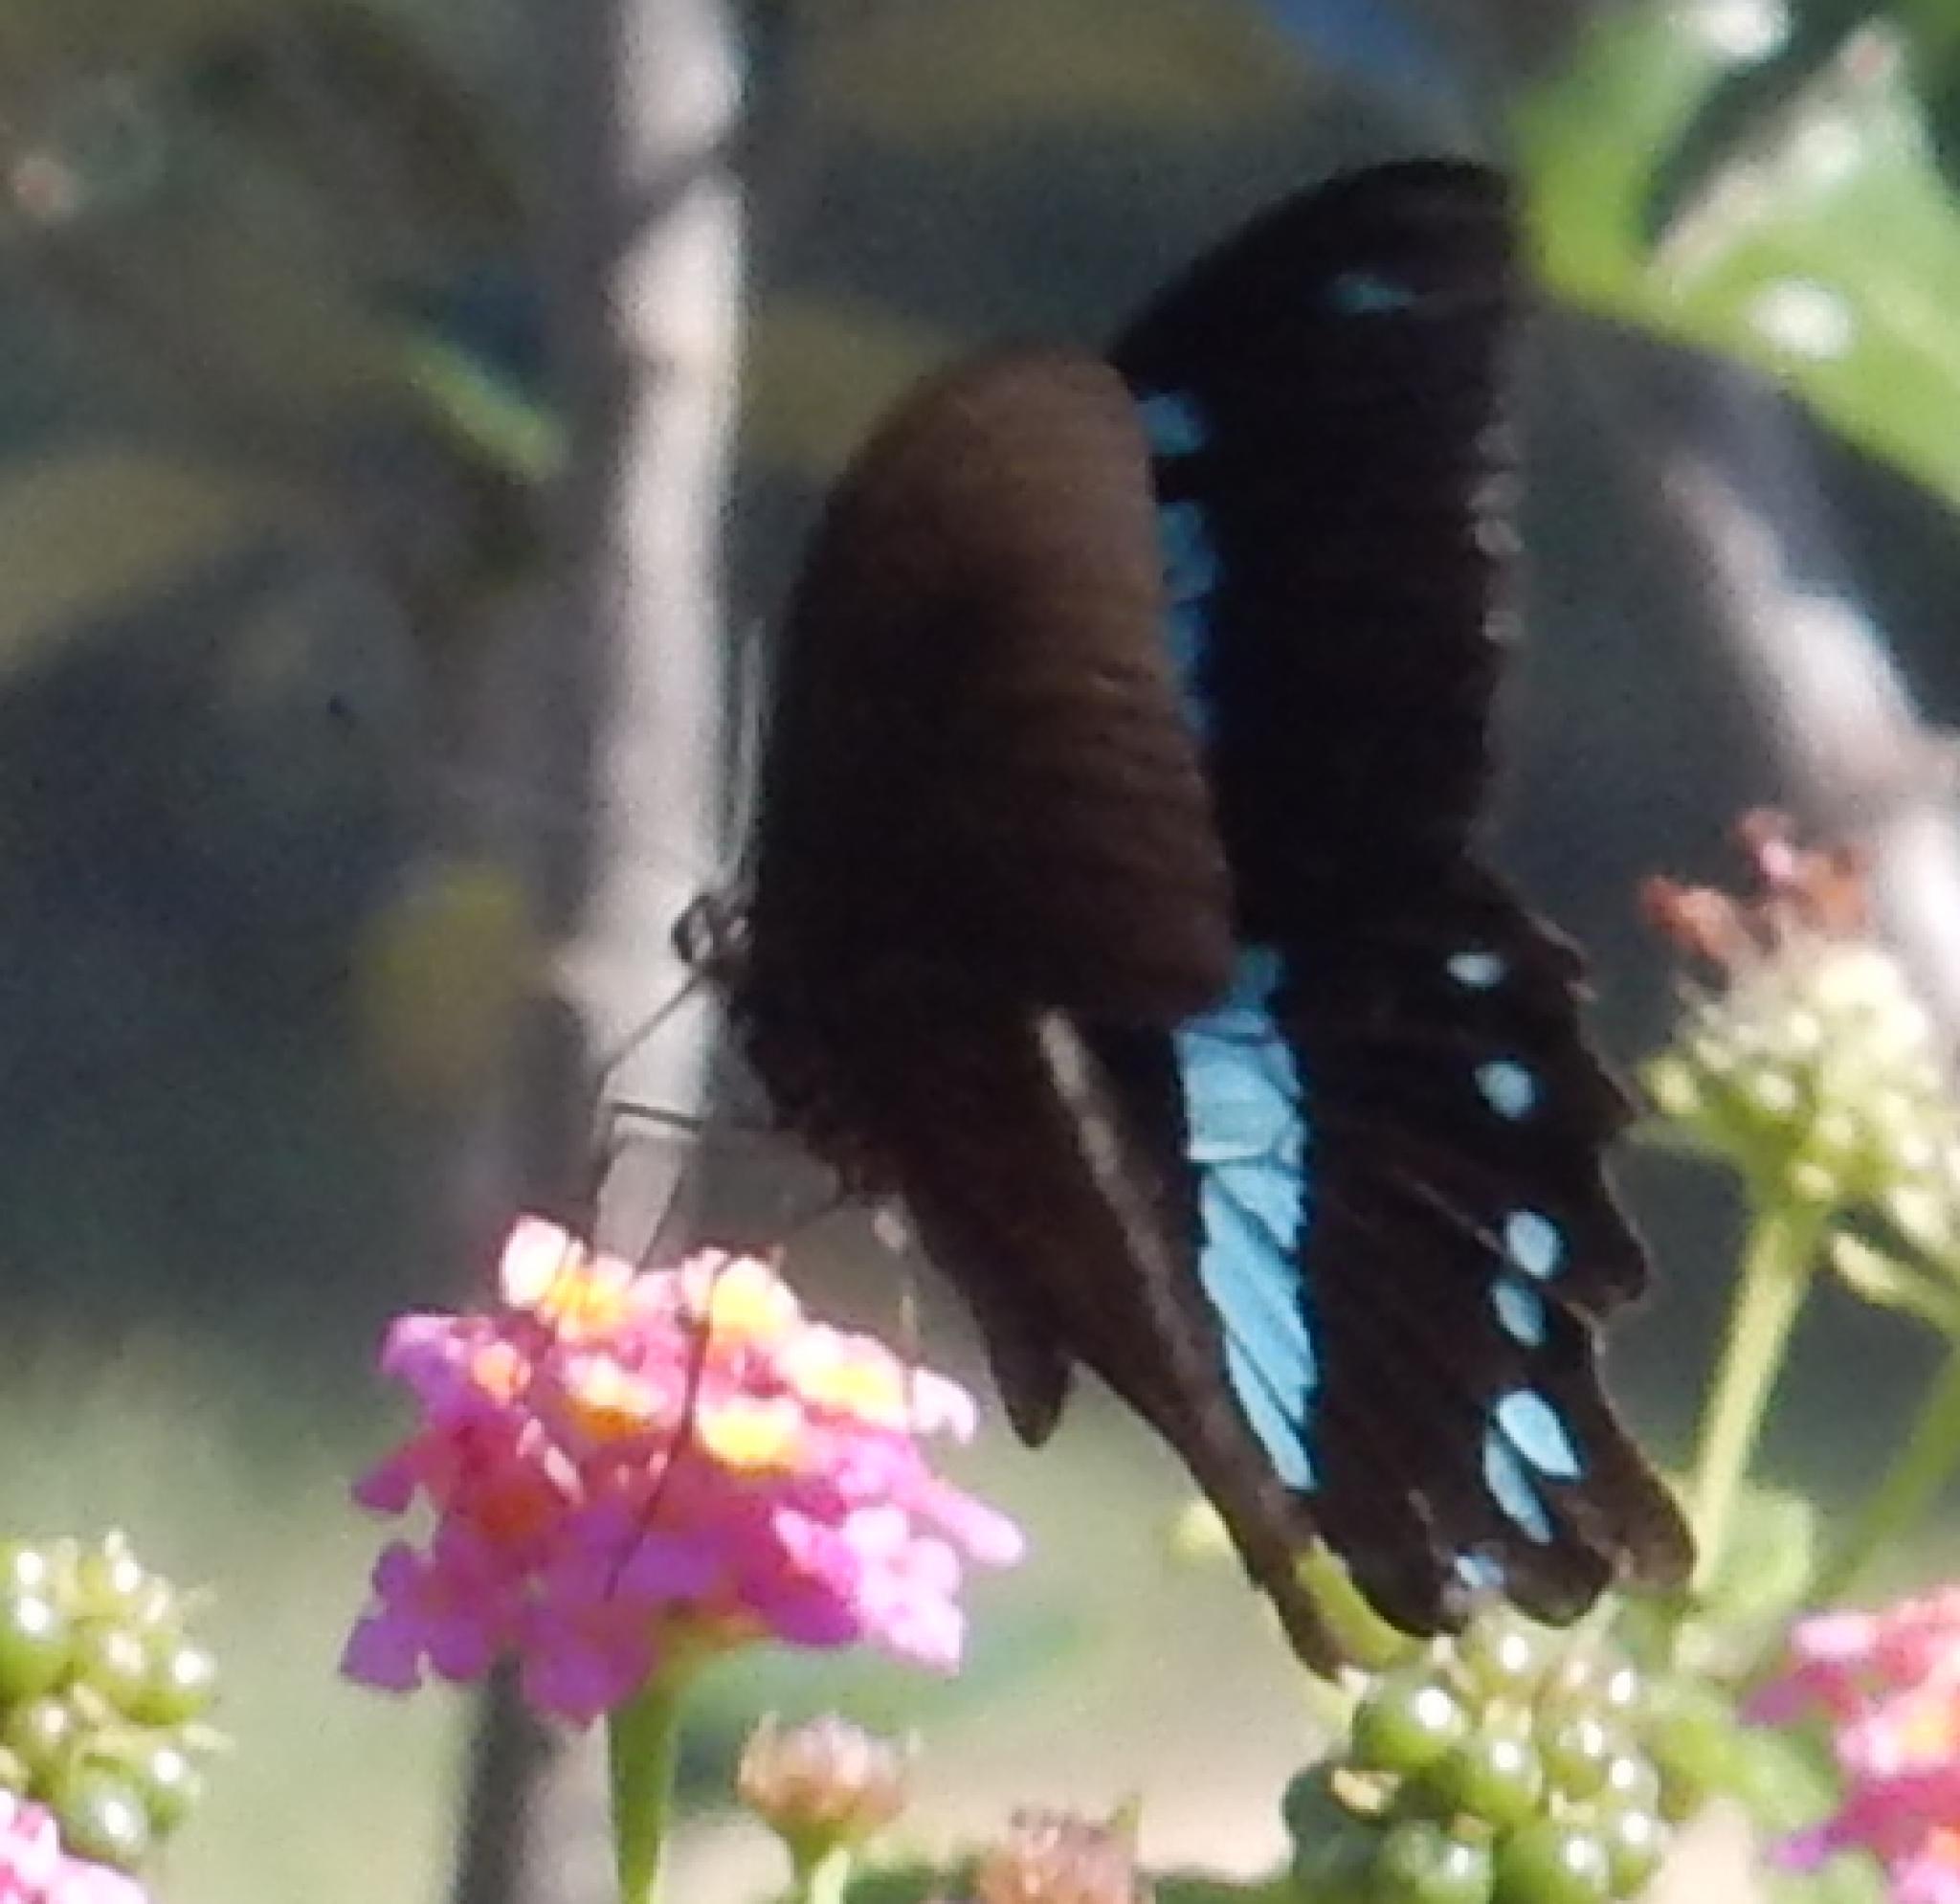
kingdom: Animalia
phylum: Arthropoda
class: Insecta
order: Lepidoptera
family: Papilionidae
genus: Papilio
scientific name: Papilio nireus
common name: Greenbanded swallowtail
